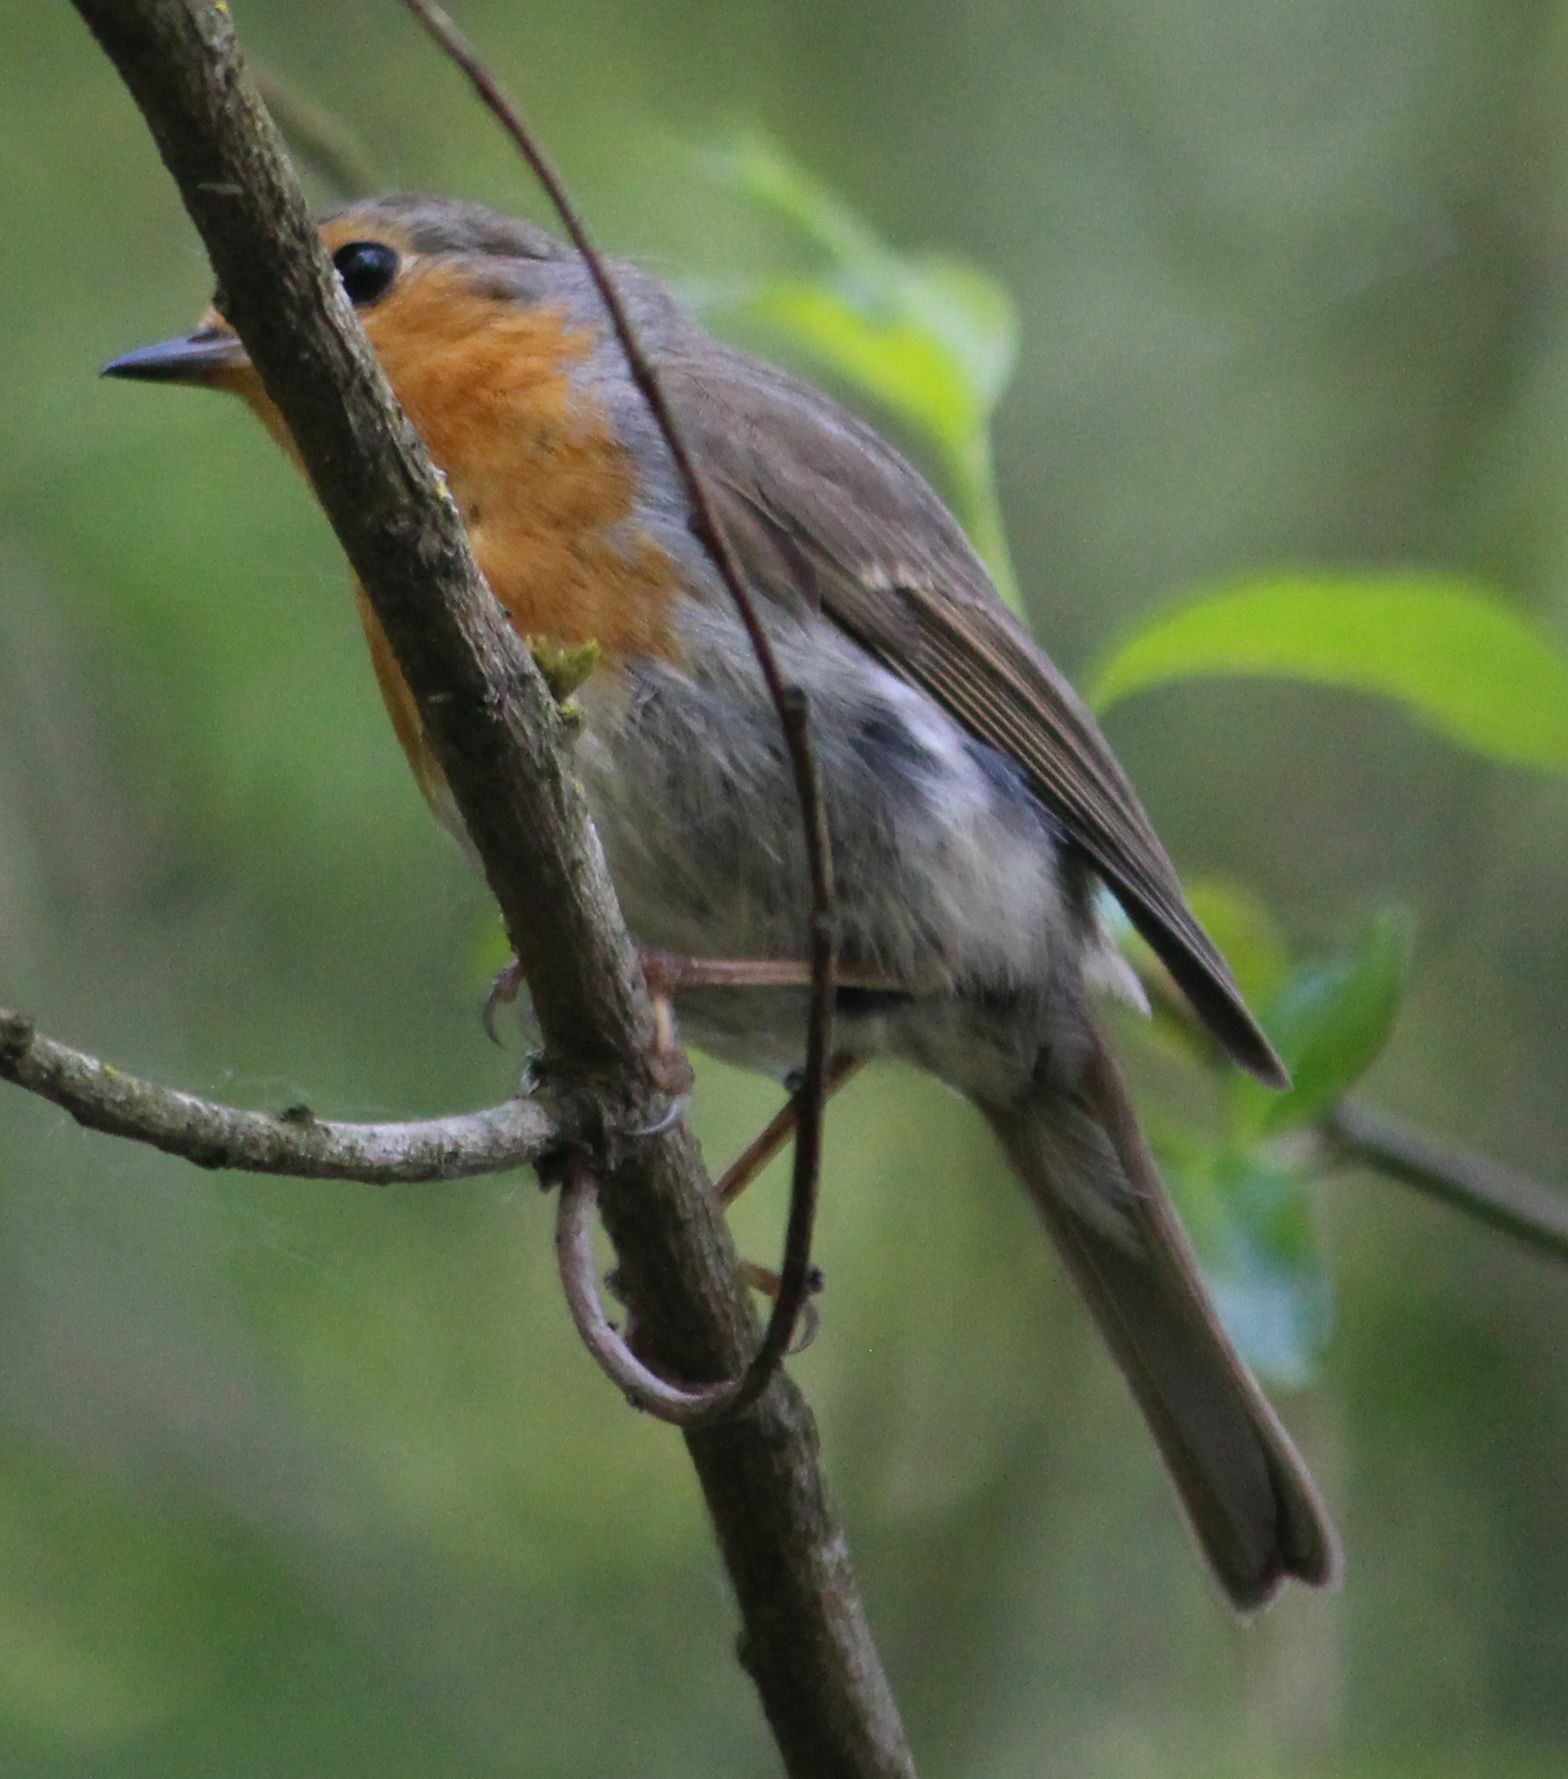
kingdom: Animalia
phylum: Chordata
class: Aves
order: Passeriformes
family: Muscicapidae
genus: Erithacus
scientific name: Erithacus rubecula
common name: European robin
